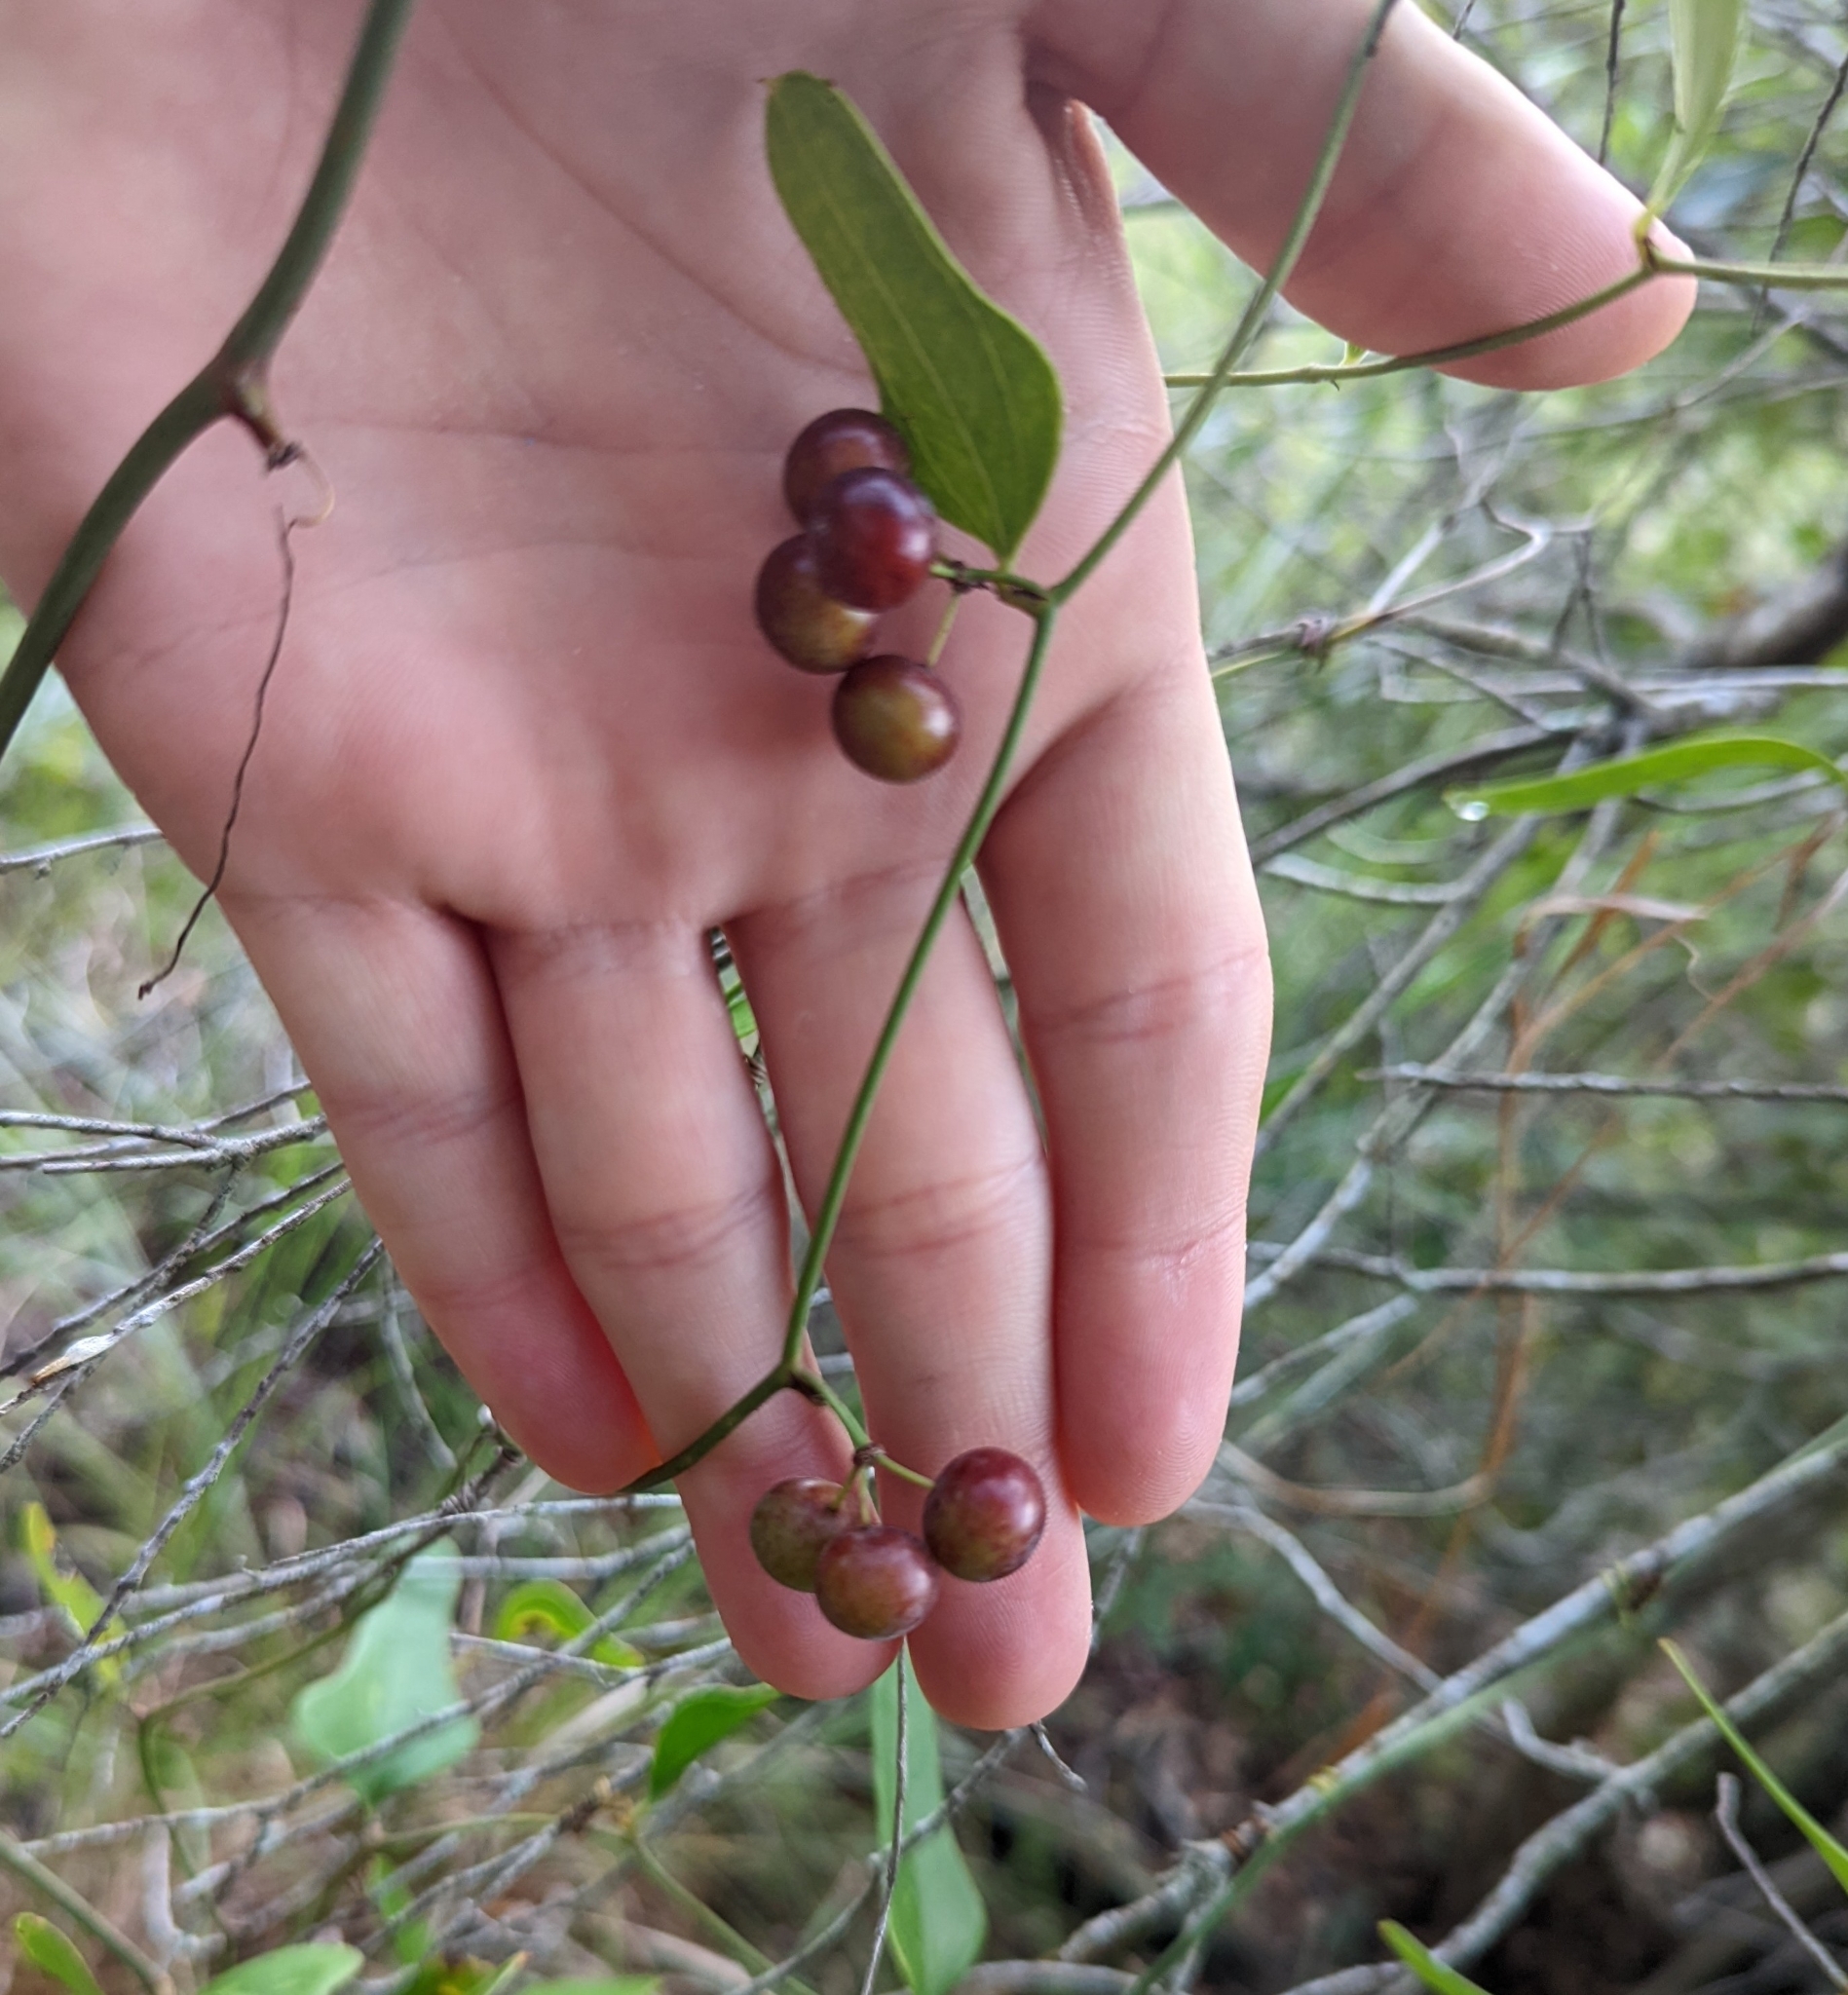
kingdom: Plantae
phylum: Tracheophyta
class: Liliopsida
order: Liliales
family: Smilacaceae
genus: Smilax
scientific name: Smilax auriculata
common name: Wild bamboo
